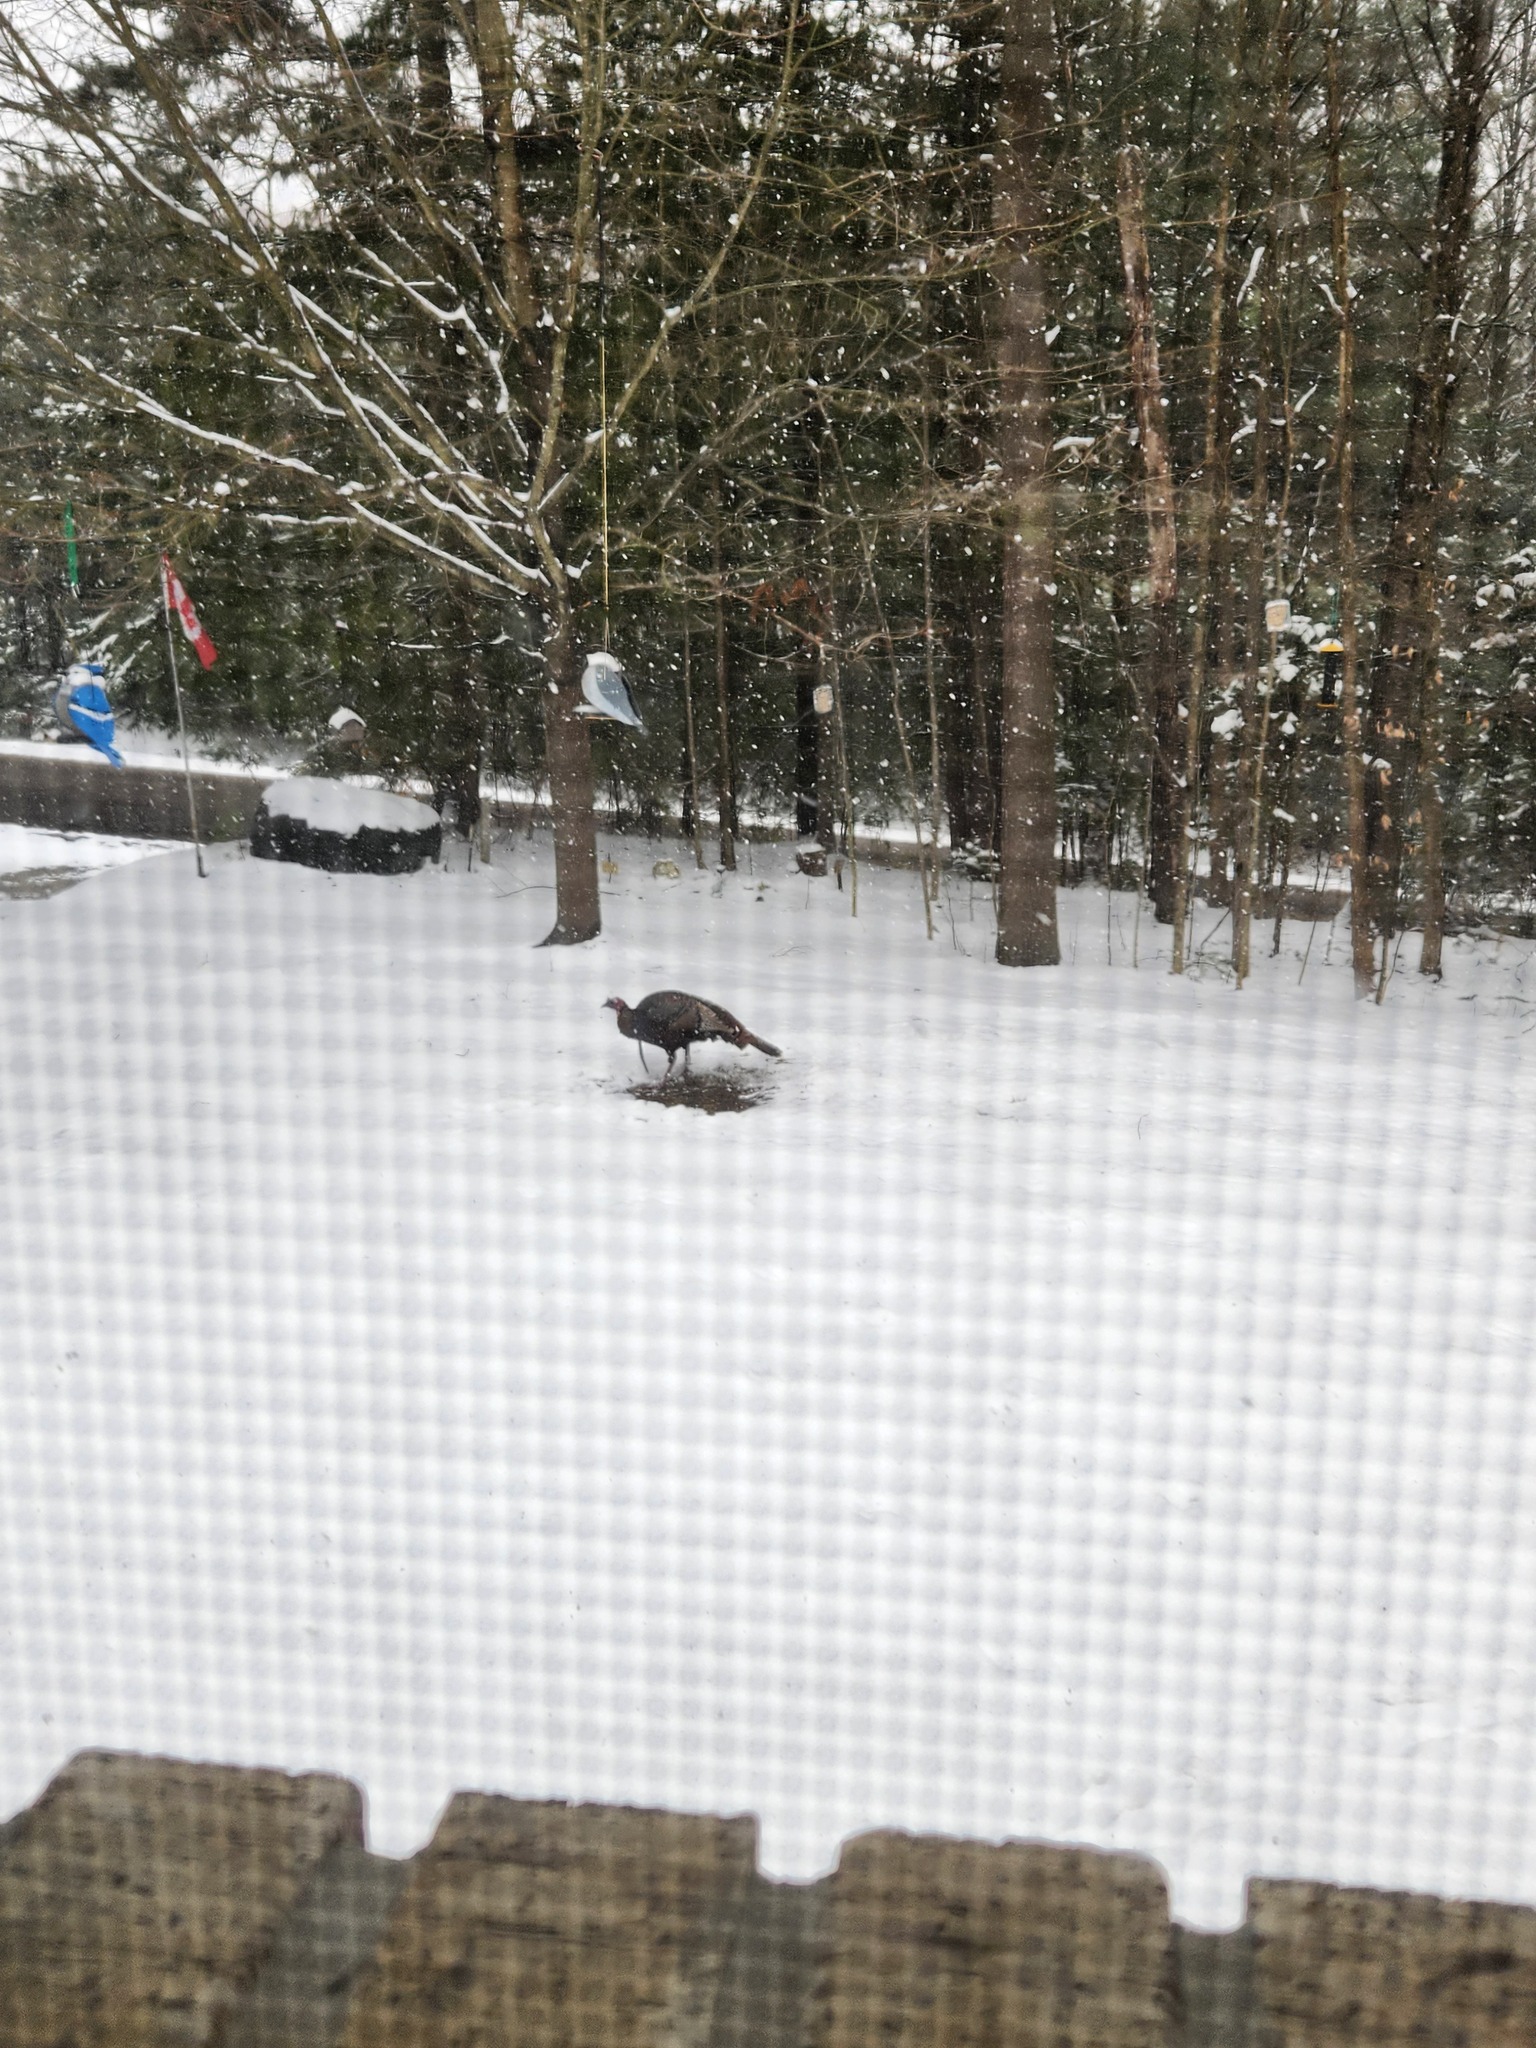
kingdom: Animalia
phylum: Chordata
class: Aves
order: Galliformes
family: Phasianidae
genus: Meleagris
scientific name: Meleagris gallopavo
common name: Wild turkey
